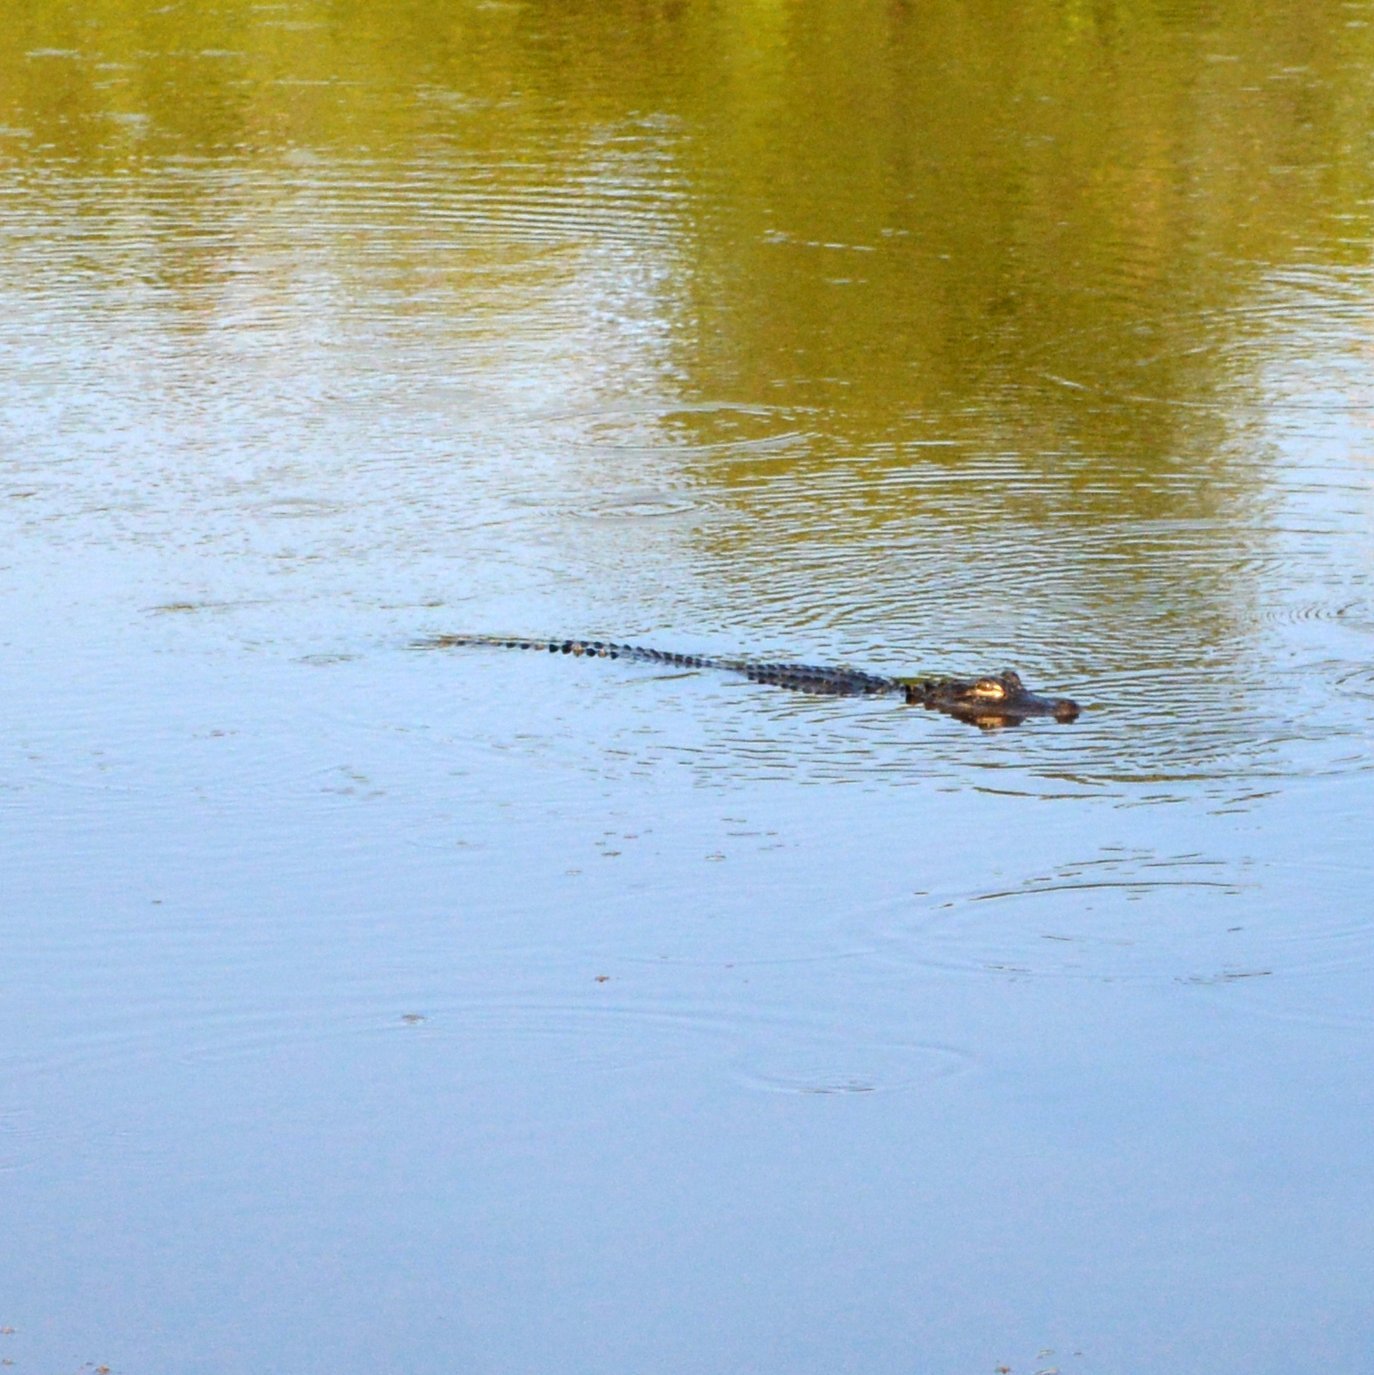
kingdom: Animalia
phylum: Chordata
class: Crocodylia
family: Alligatoridae
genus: Alligator
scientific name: Alligator mississippiensis
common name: American alligator
